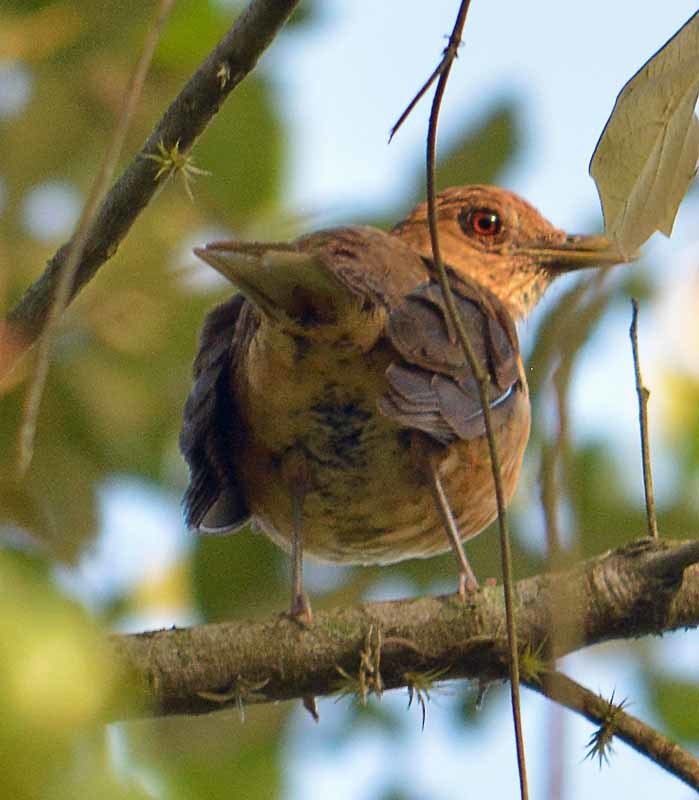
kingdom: Animalia
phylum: Chordata
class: Aves
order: Passeriformes
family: Turdidae
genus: Turdus
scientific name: Turdus grayi
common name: Clay-colored thrush
